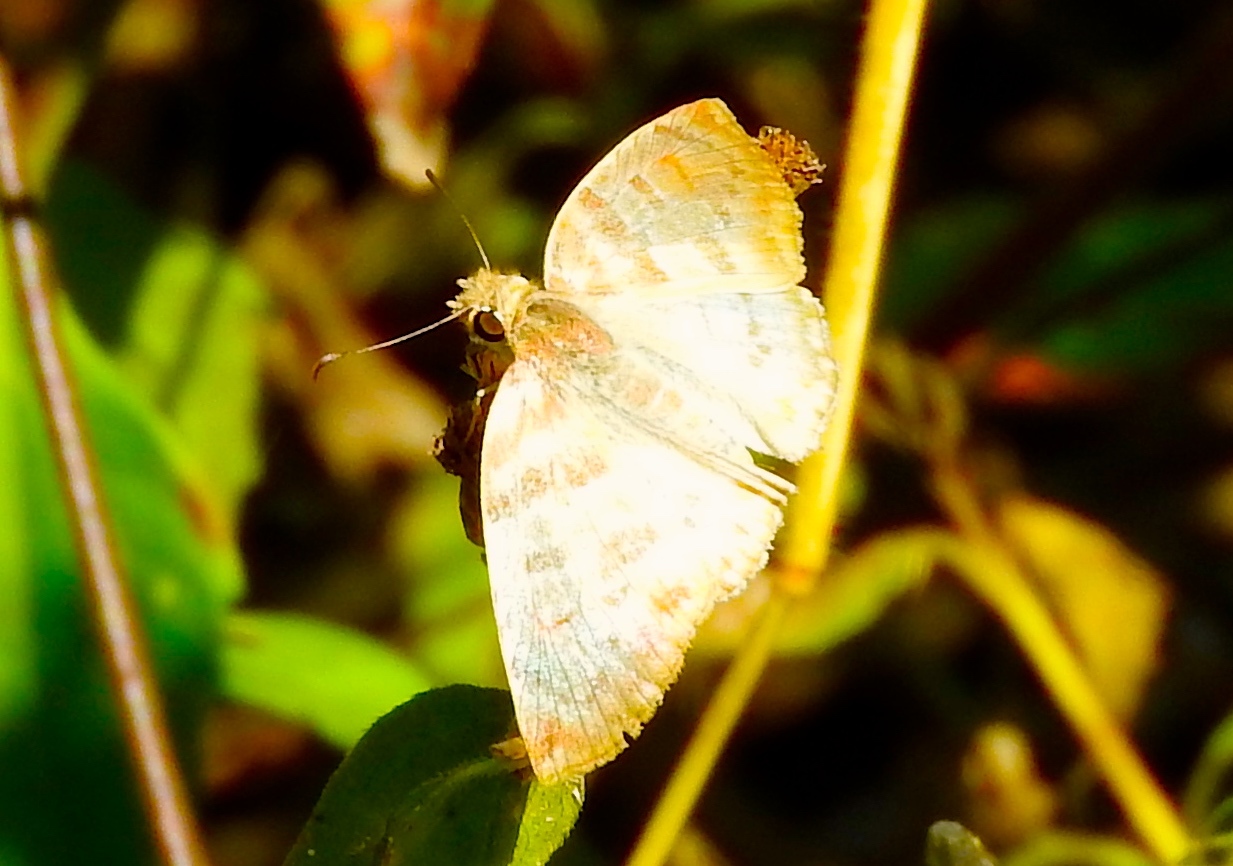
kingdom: Animalia
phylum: Arthropoda
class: Insecta
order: Lepidoptera
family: Hesperiidae
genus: Mylon
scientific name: Mylon pelopidas
